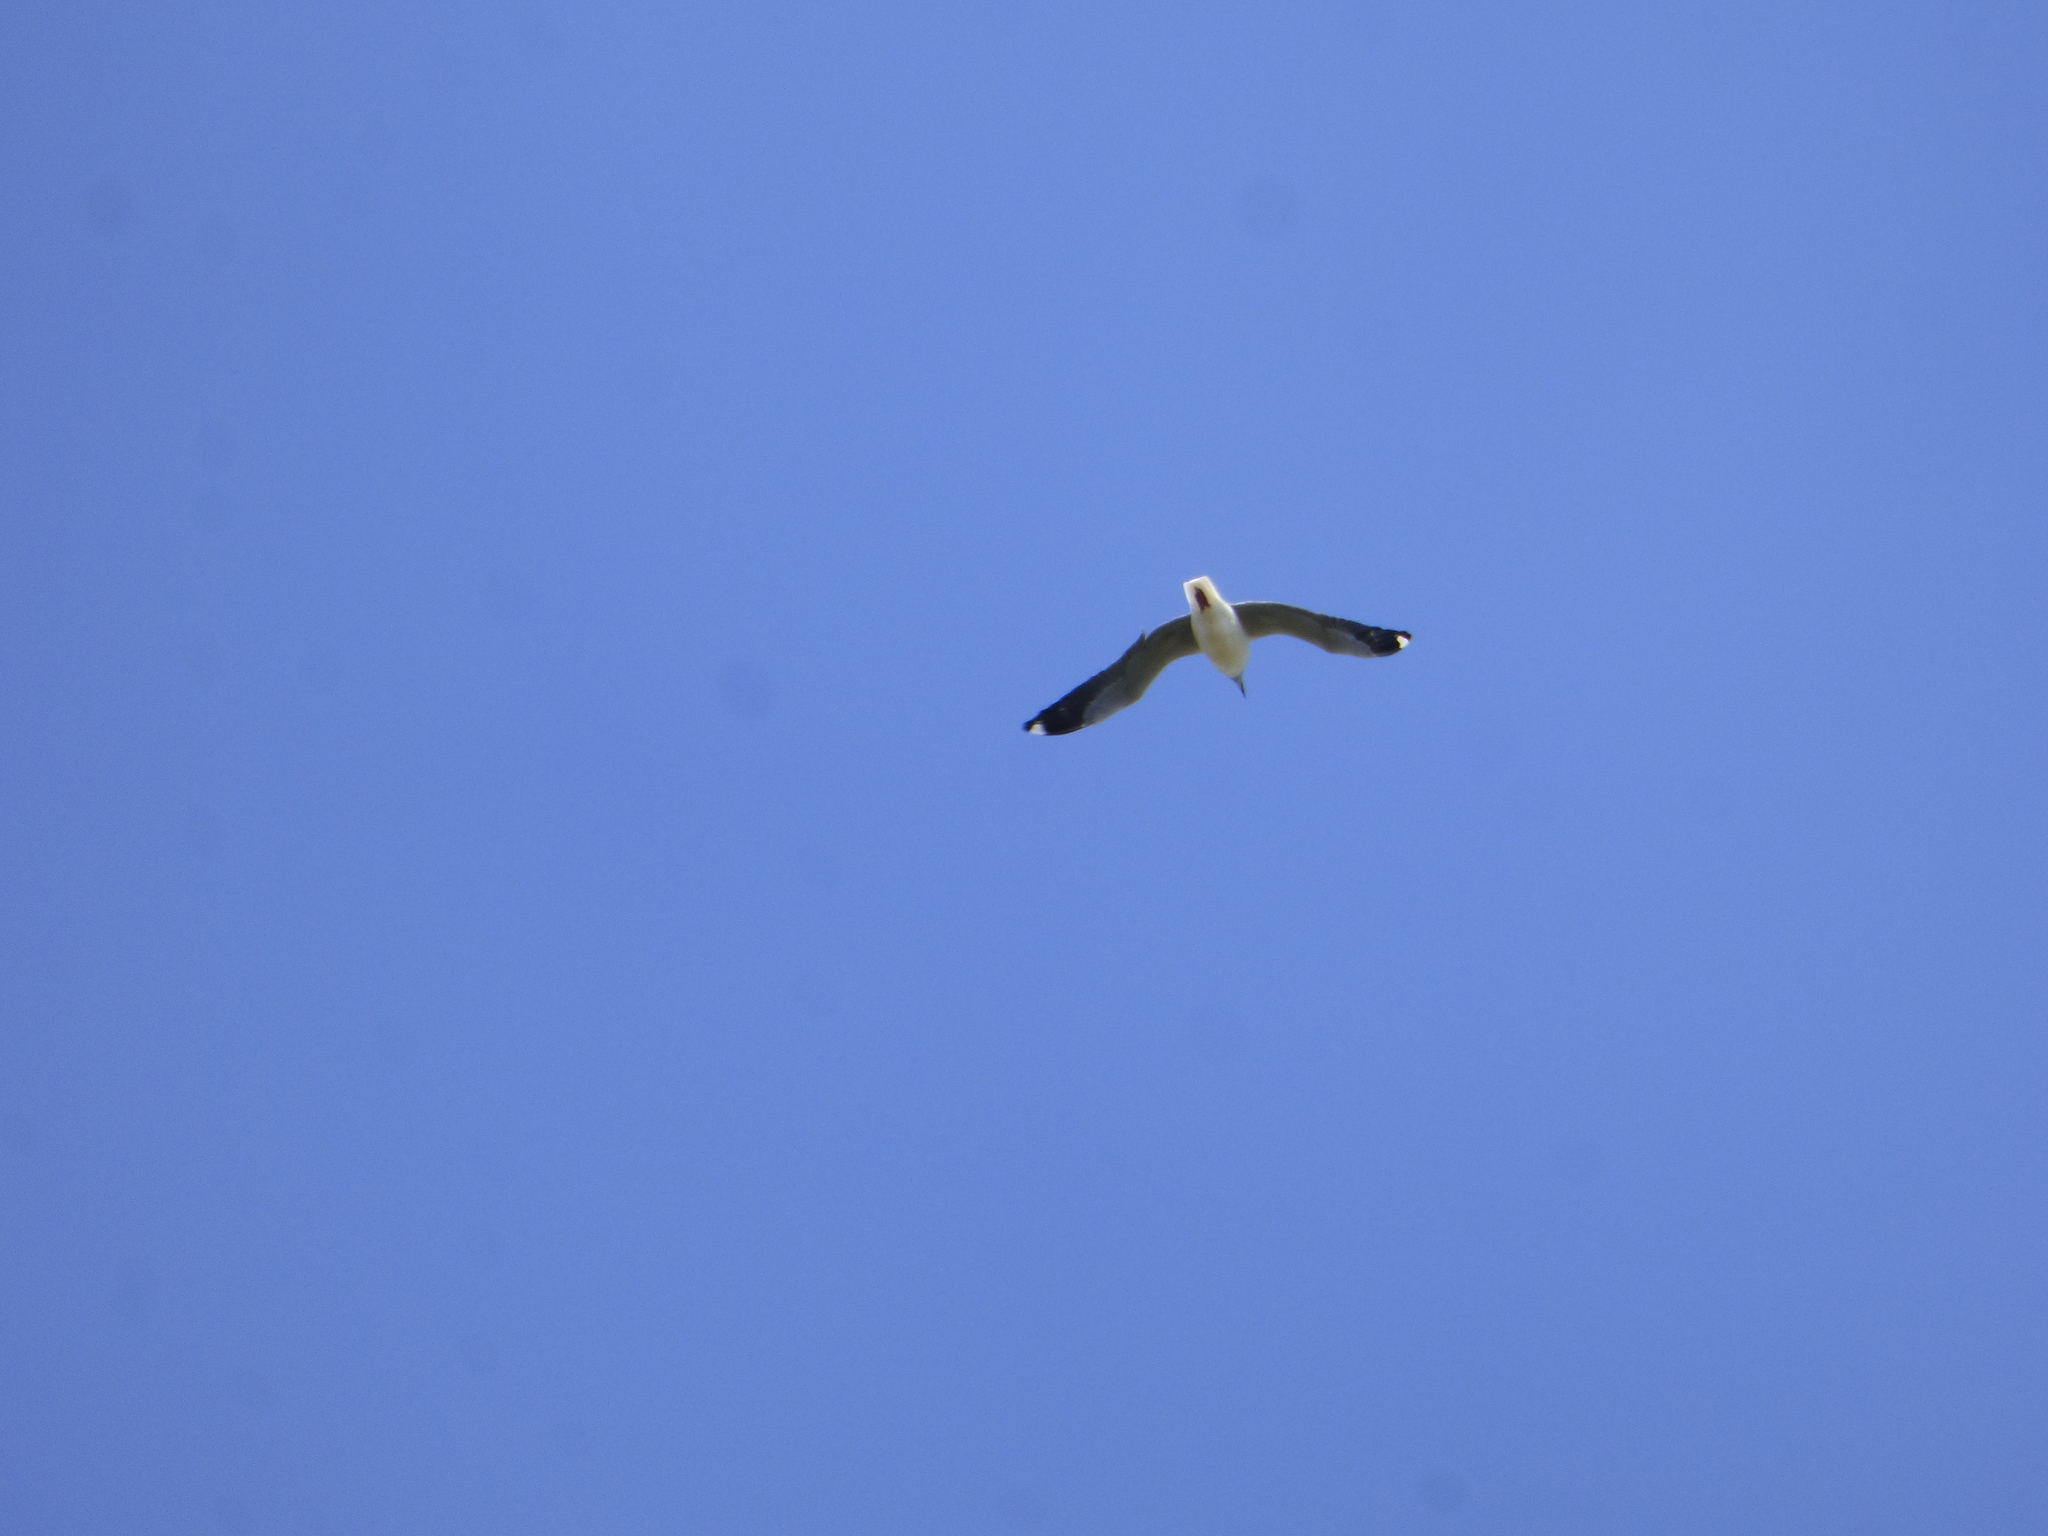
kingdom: Animalia
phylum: Chordata
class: Aves
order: Charadriiformes
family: Laridae
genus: Chroicocephalus
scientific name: Chroicocephalus cirrocephalus
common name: Grey-headed gull
